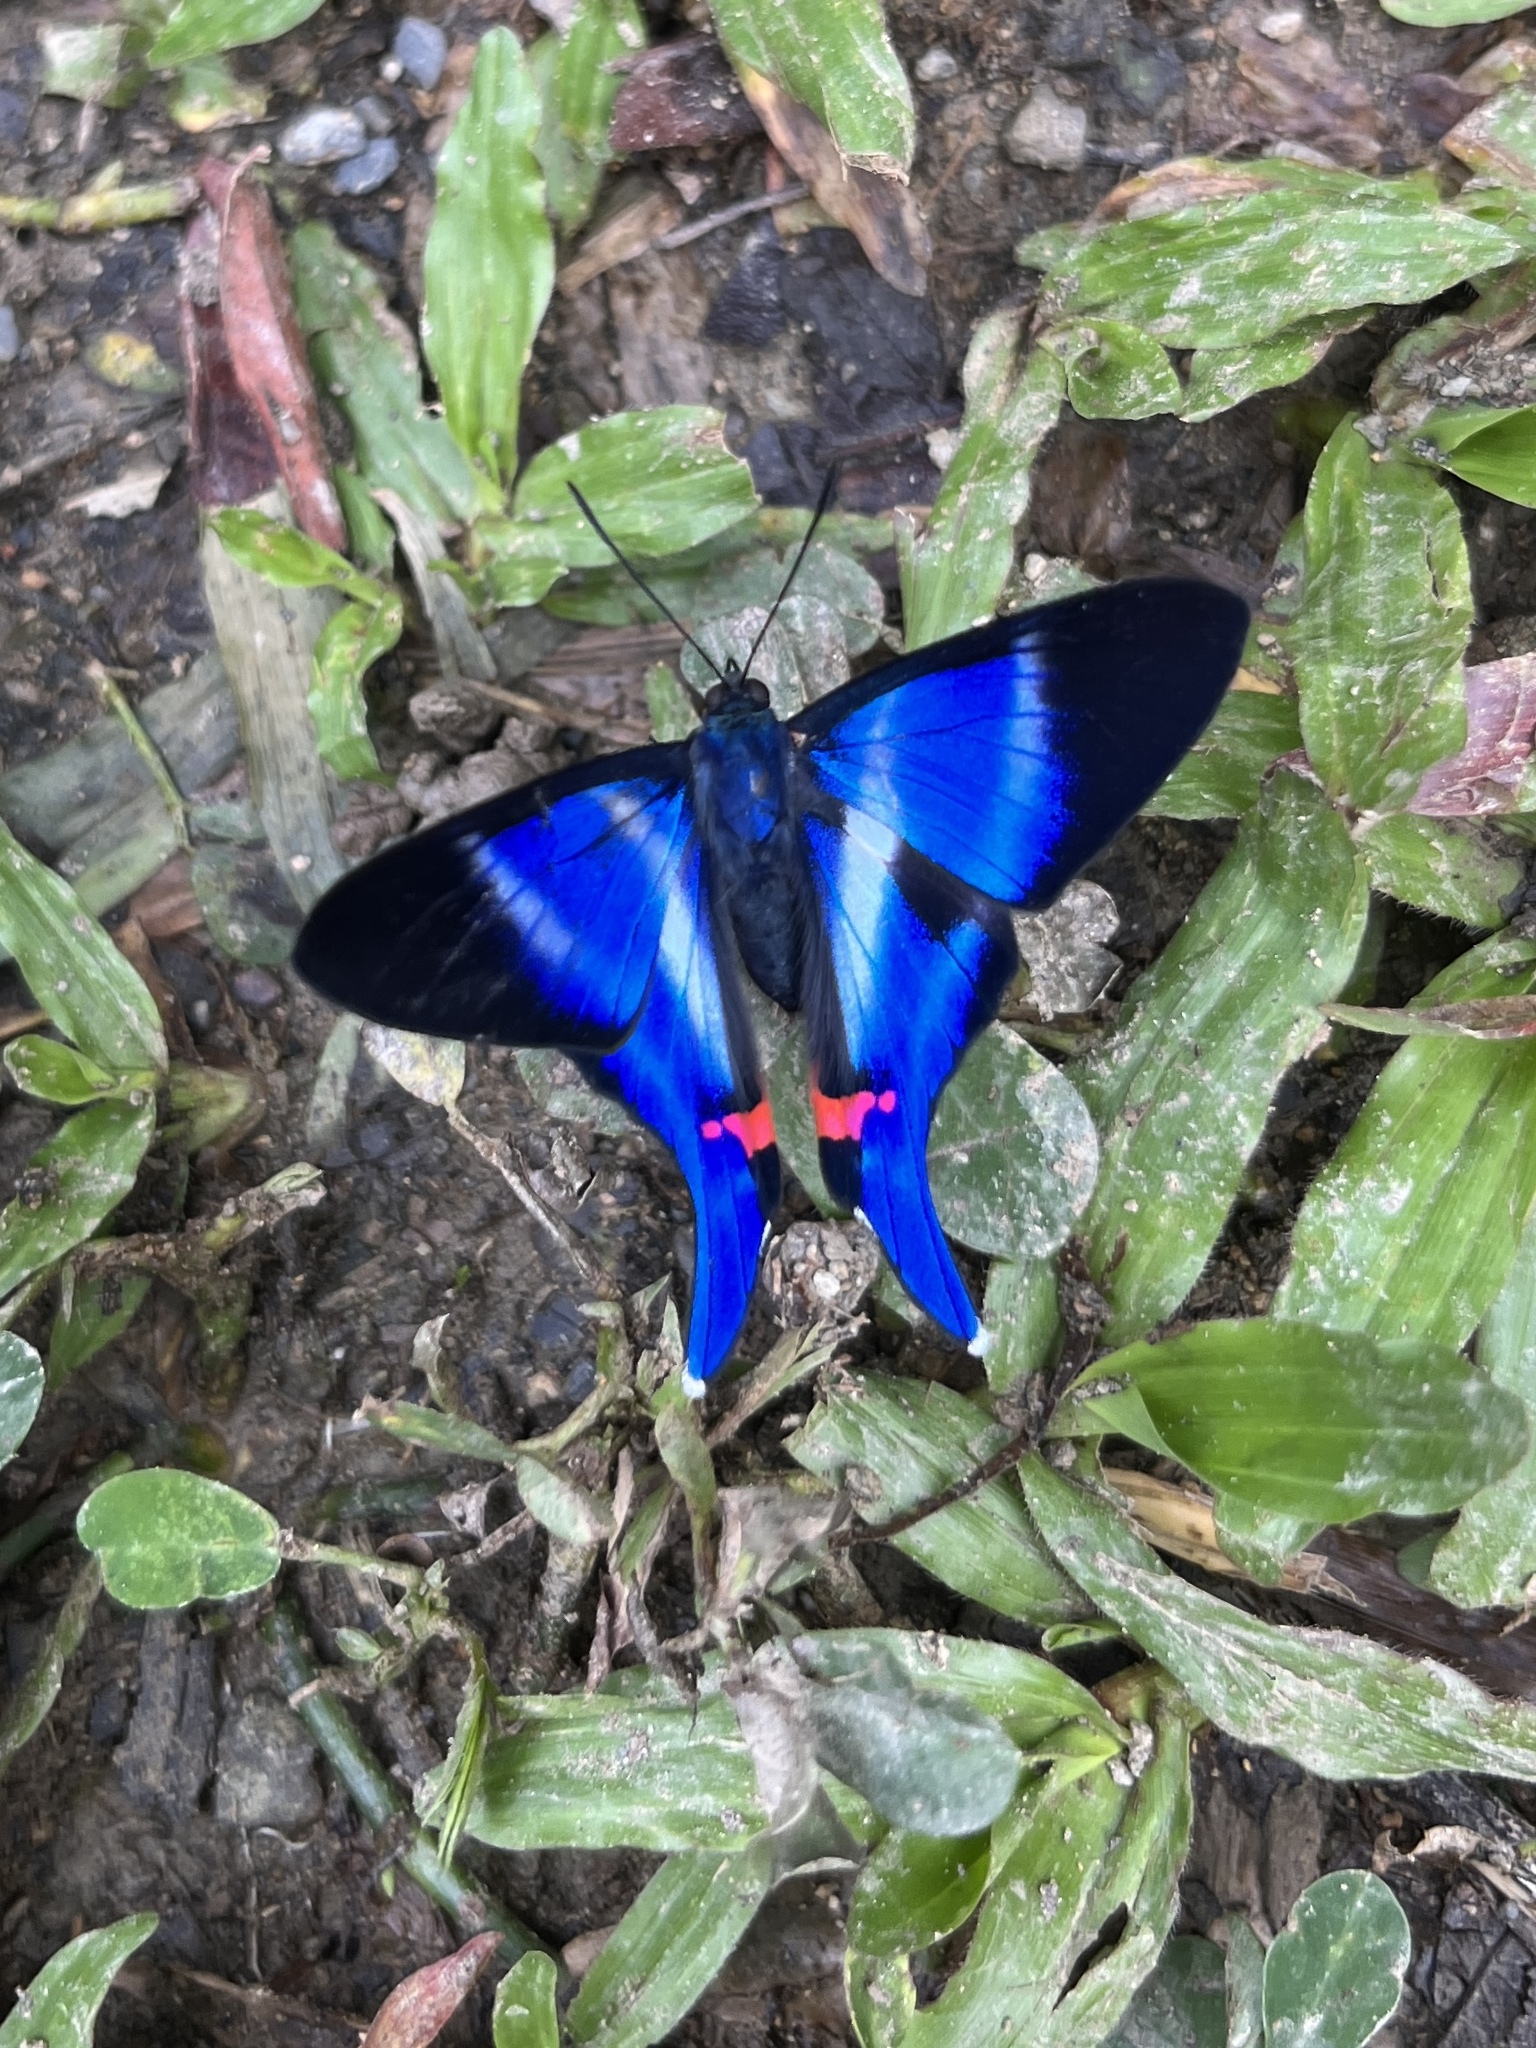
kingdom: Animalia
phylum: Arthropoda
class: Insecta
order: Lepidoptera
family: Riodinidae
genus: Rhetus
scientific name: Rhetus dysonii
